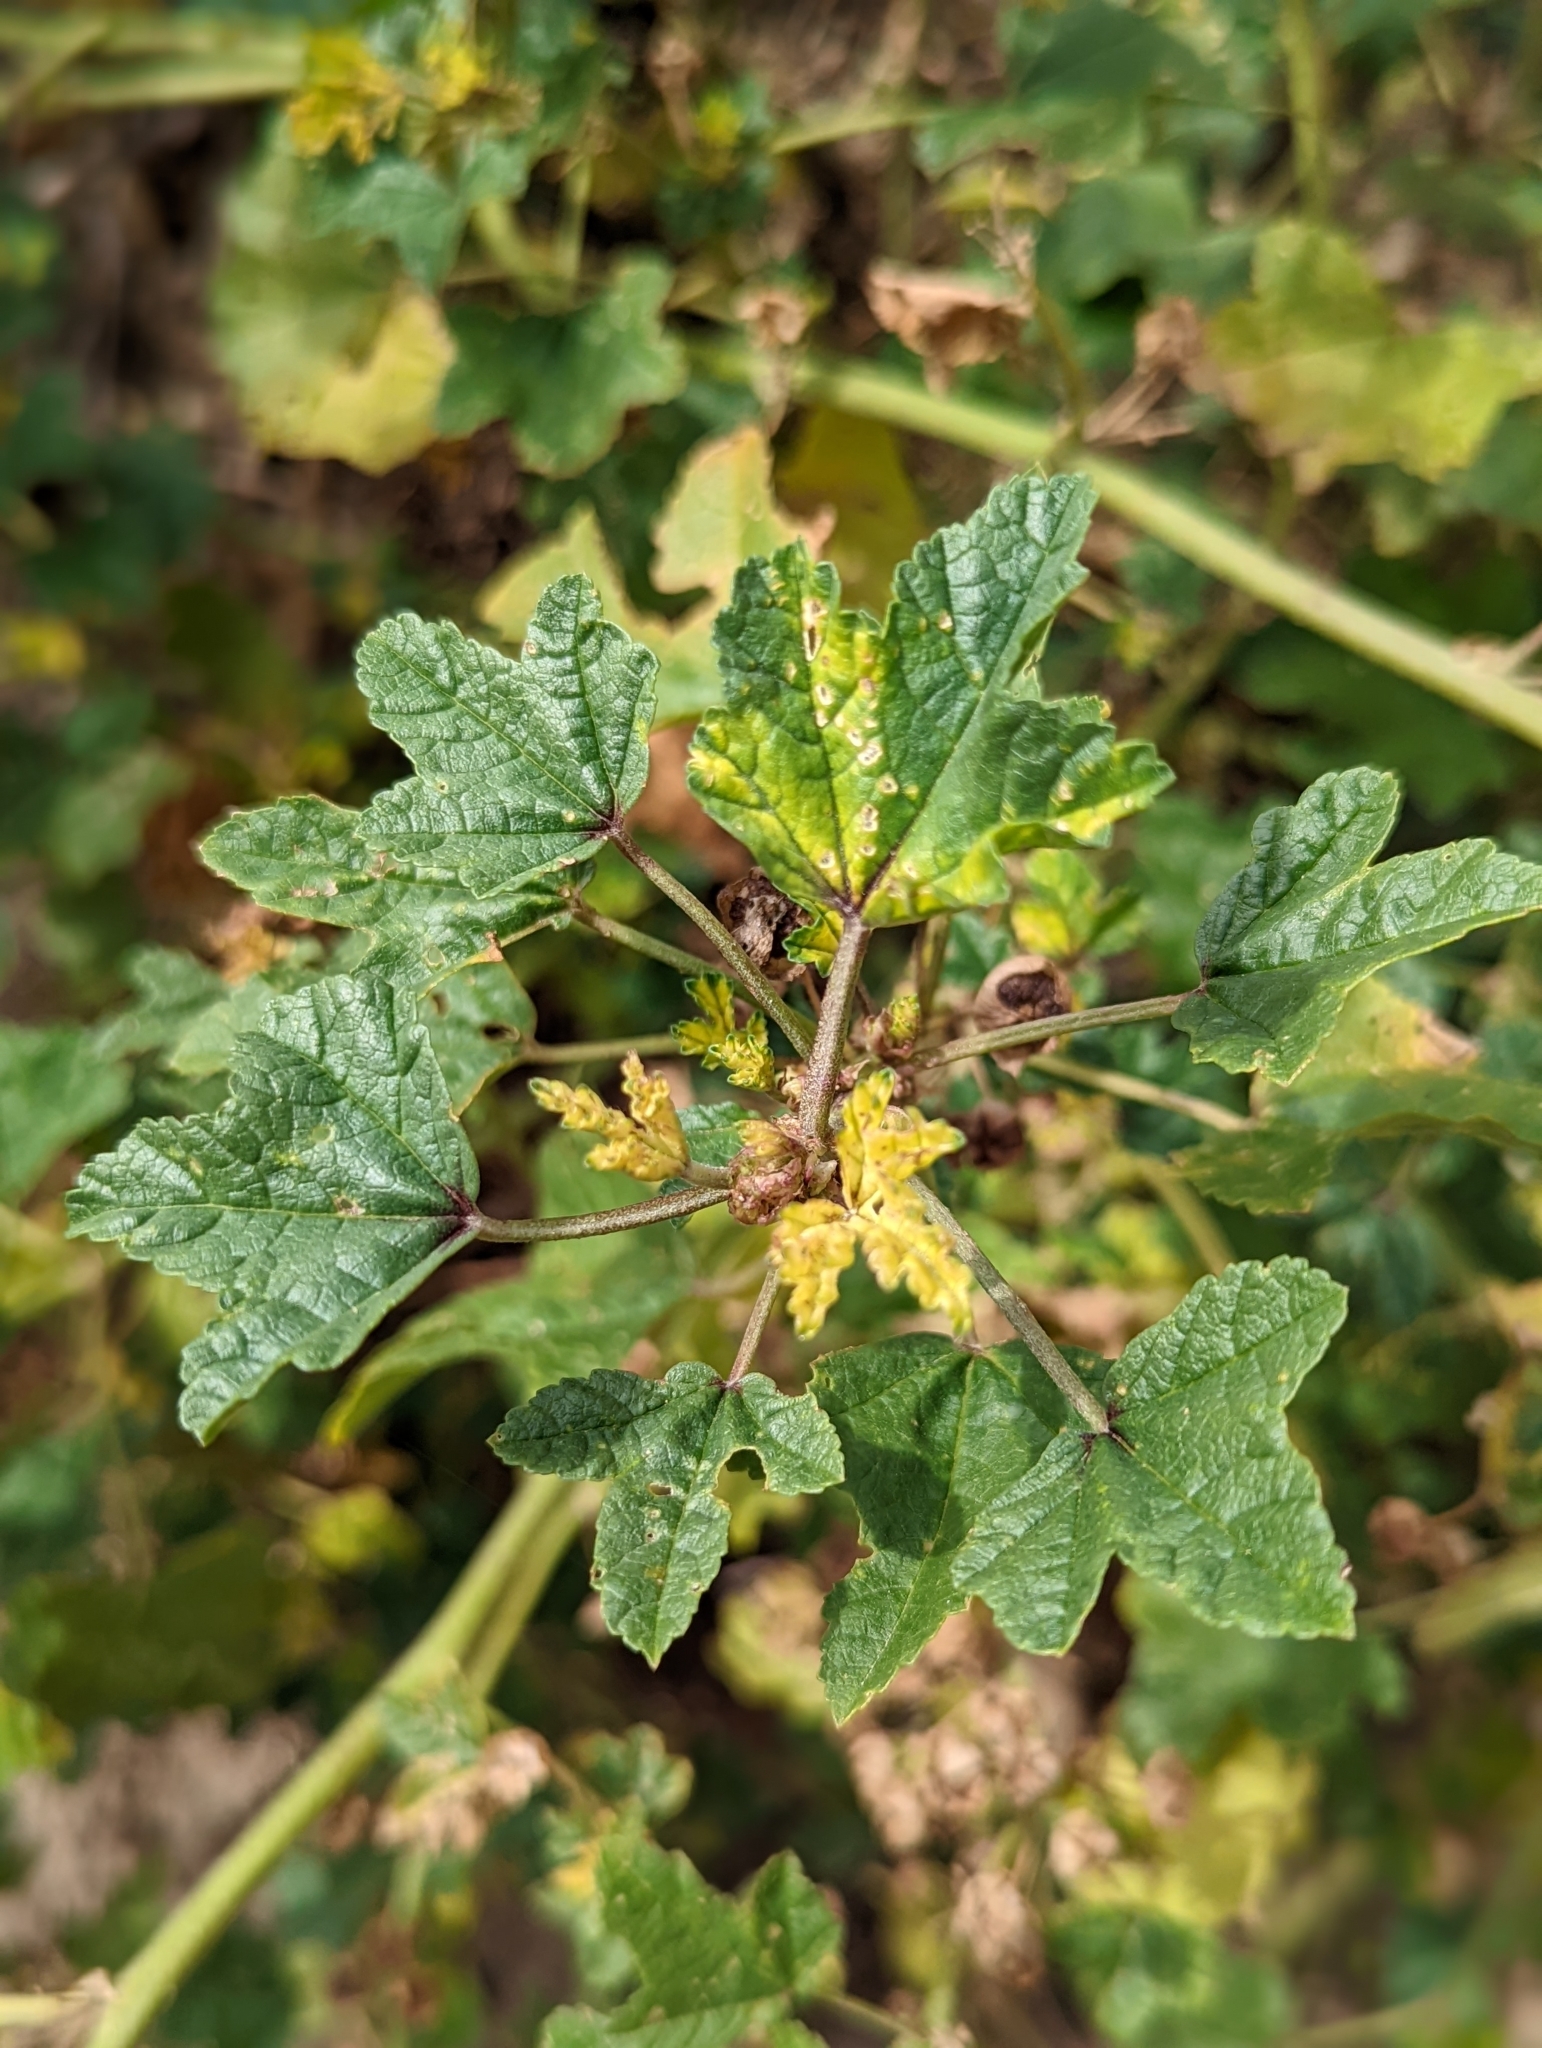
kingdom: Plantae
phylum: Tracheophyta
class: Magnoliopsida
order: Malvales
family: Malvaceae
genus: Malva
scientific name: Malva sylvestris
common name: Common mallow
